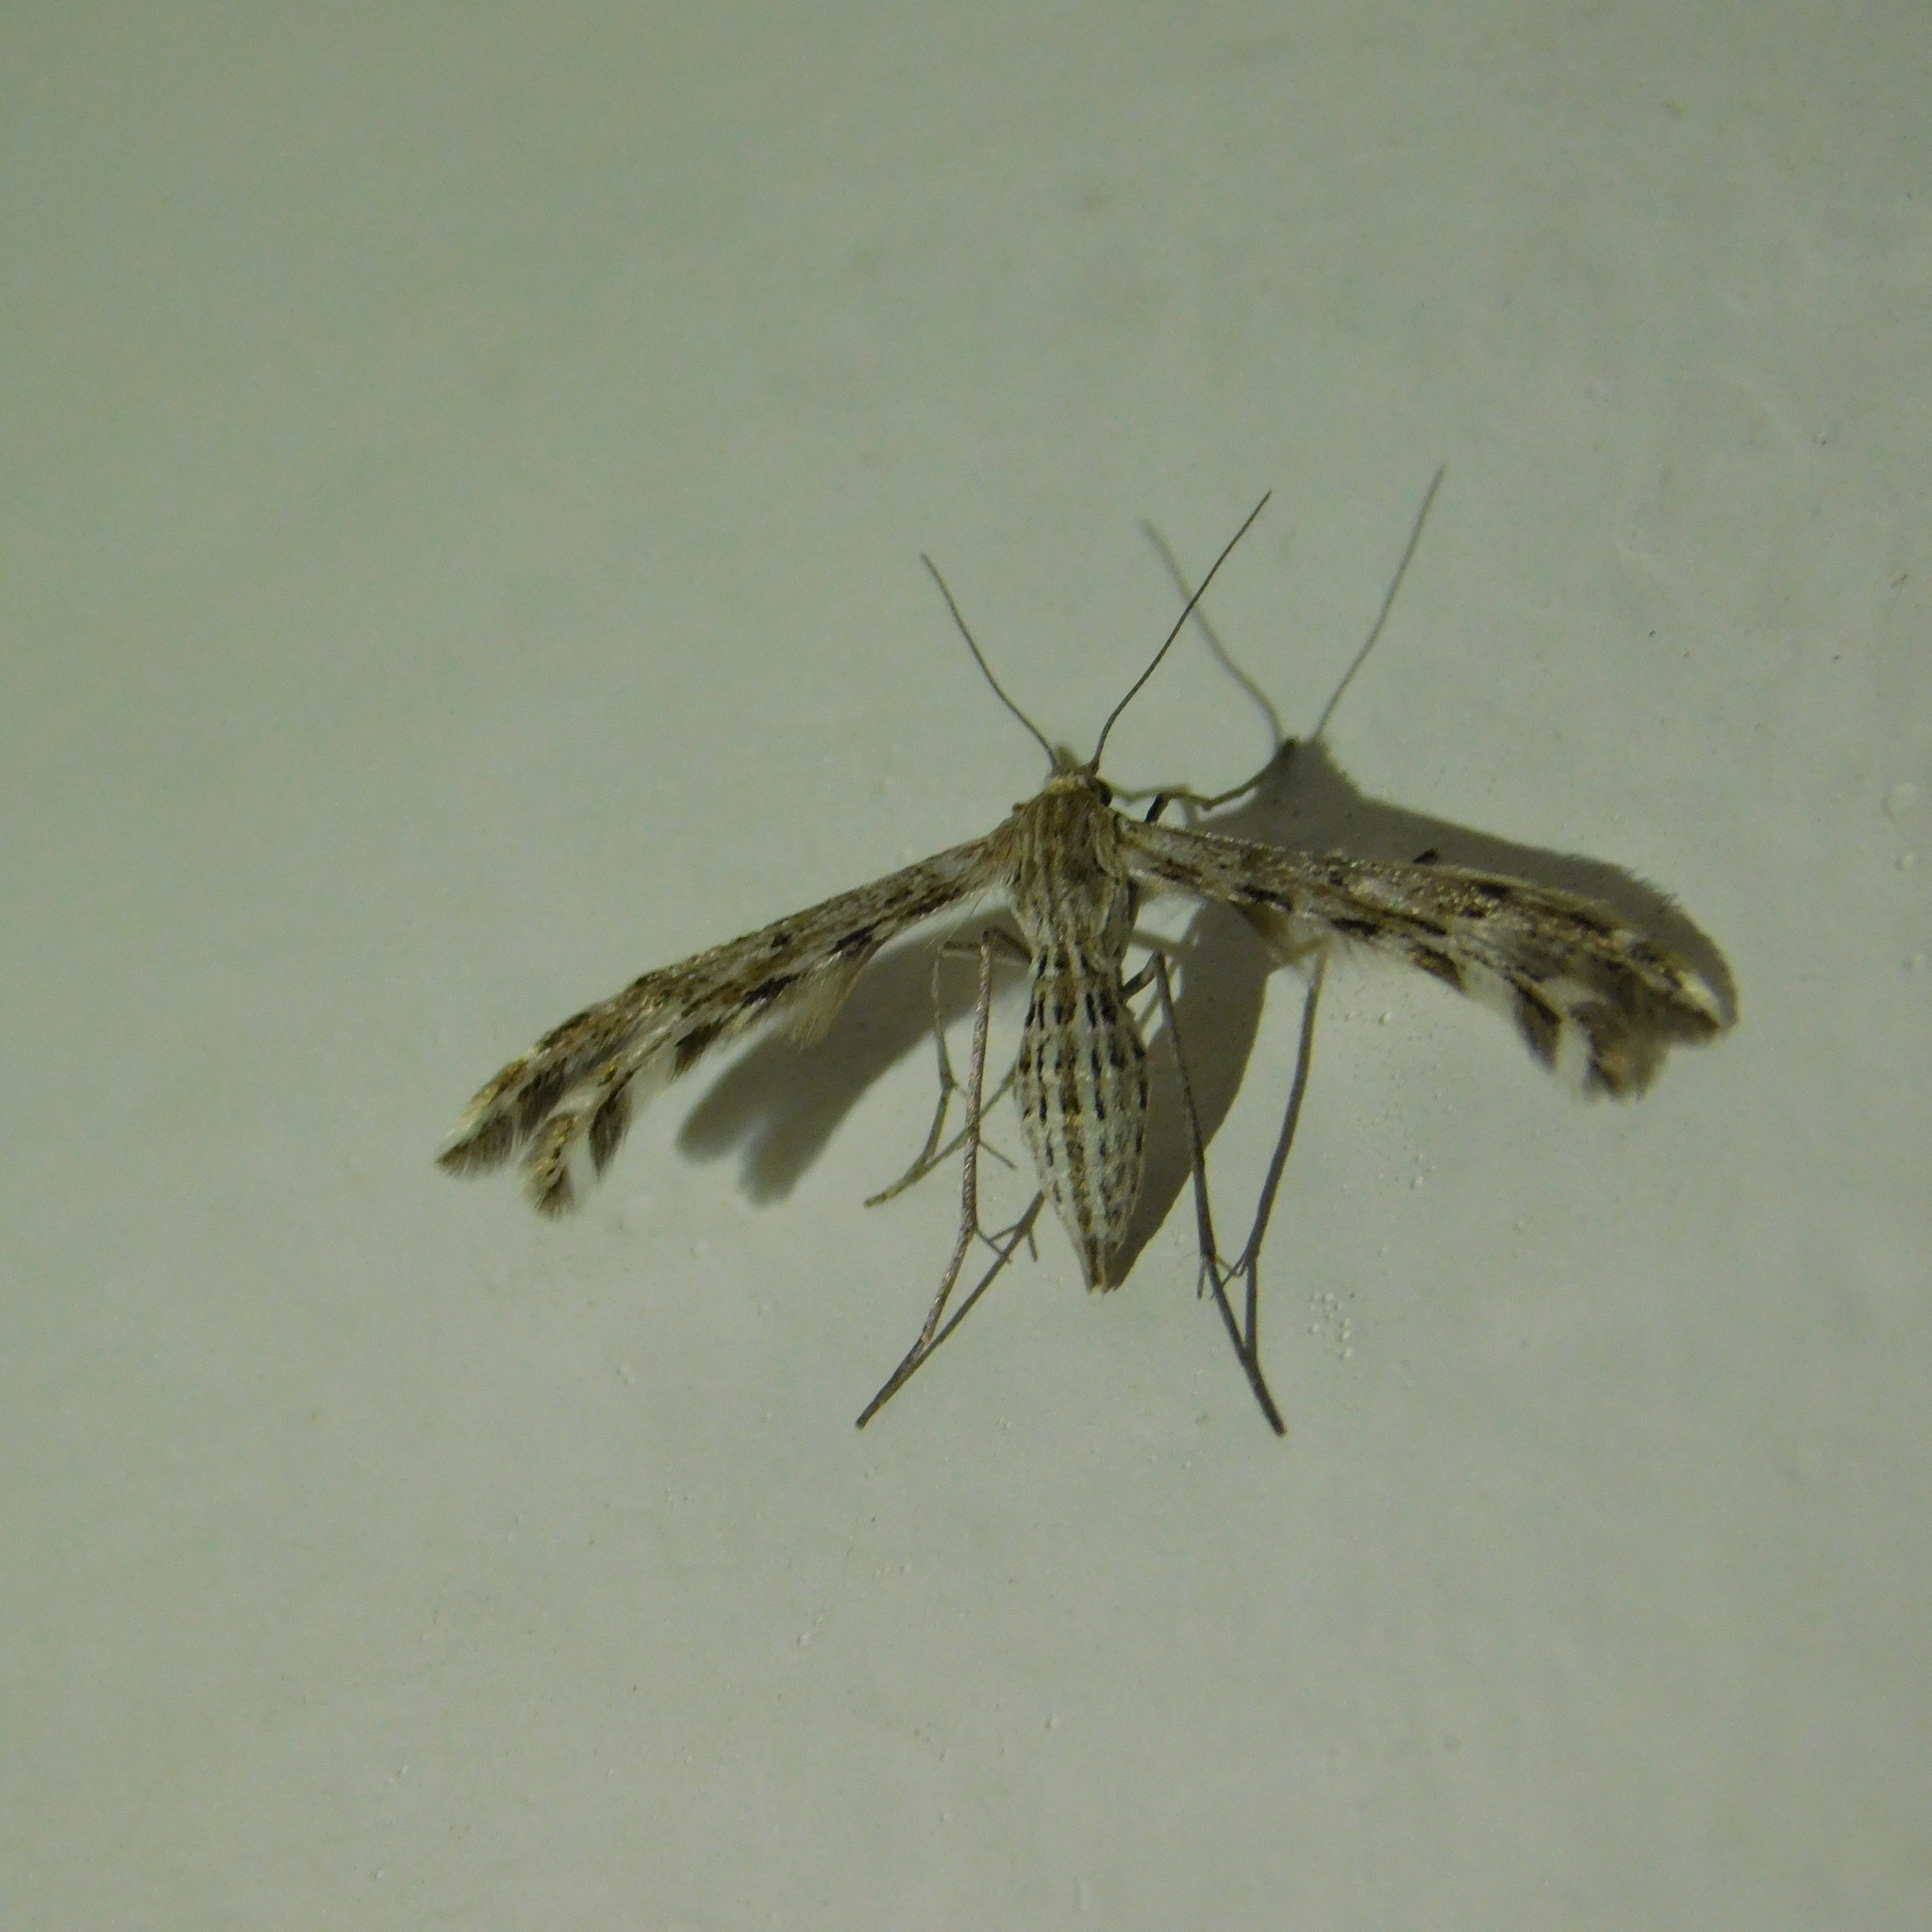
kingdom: Animalia
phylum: Arthropoda
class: Insecta
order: Lepidoptera
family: Pterophoridae
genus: Singularia
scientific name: Singularia alternaria
